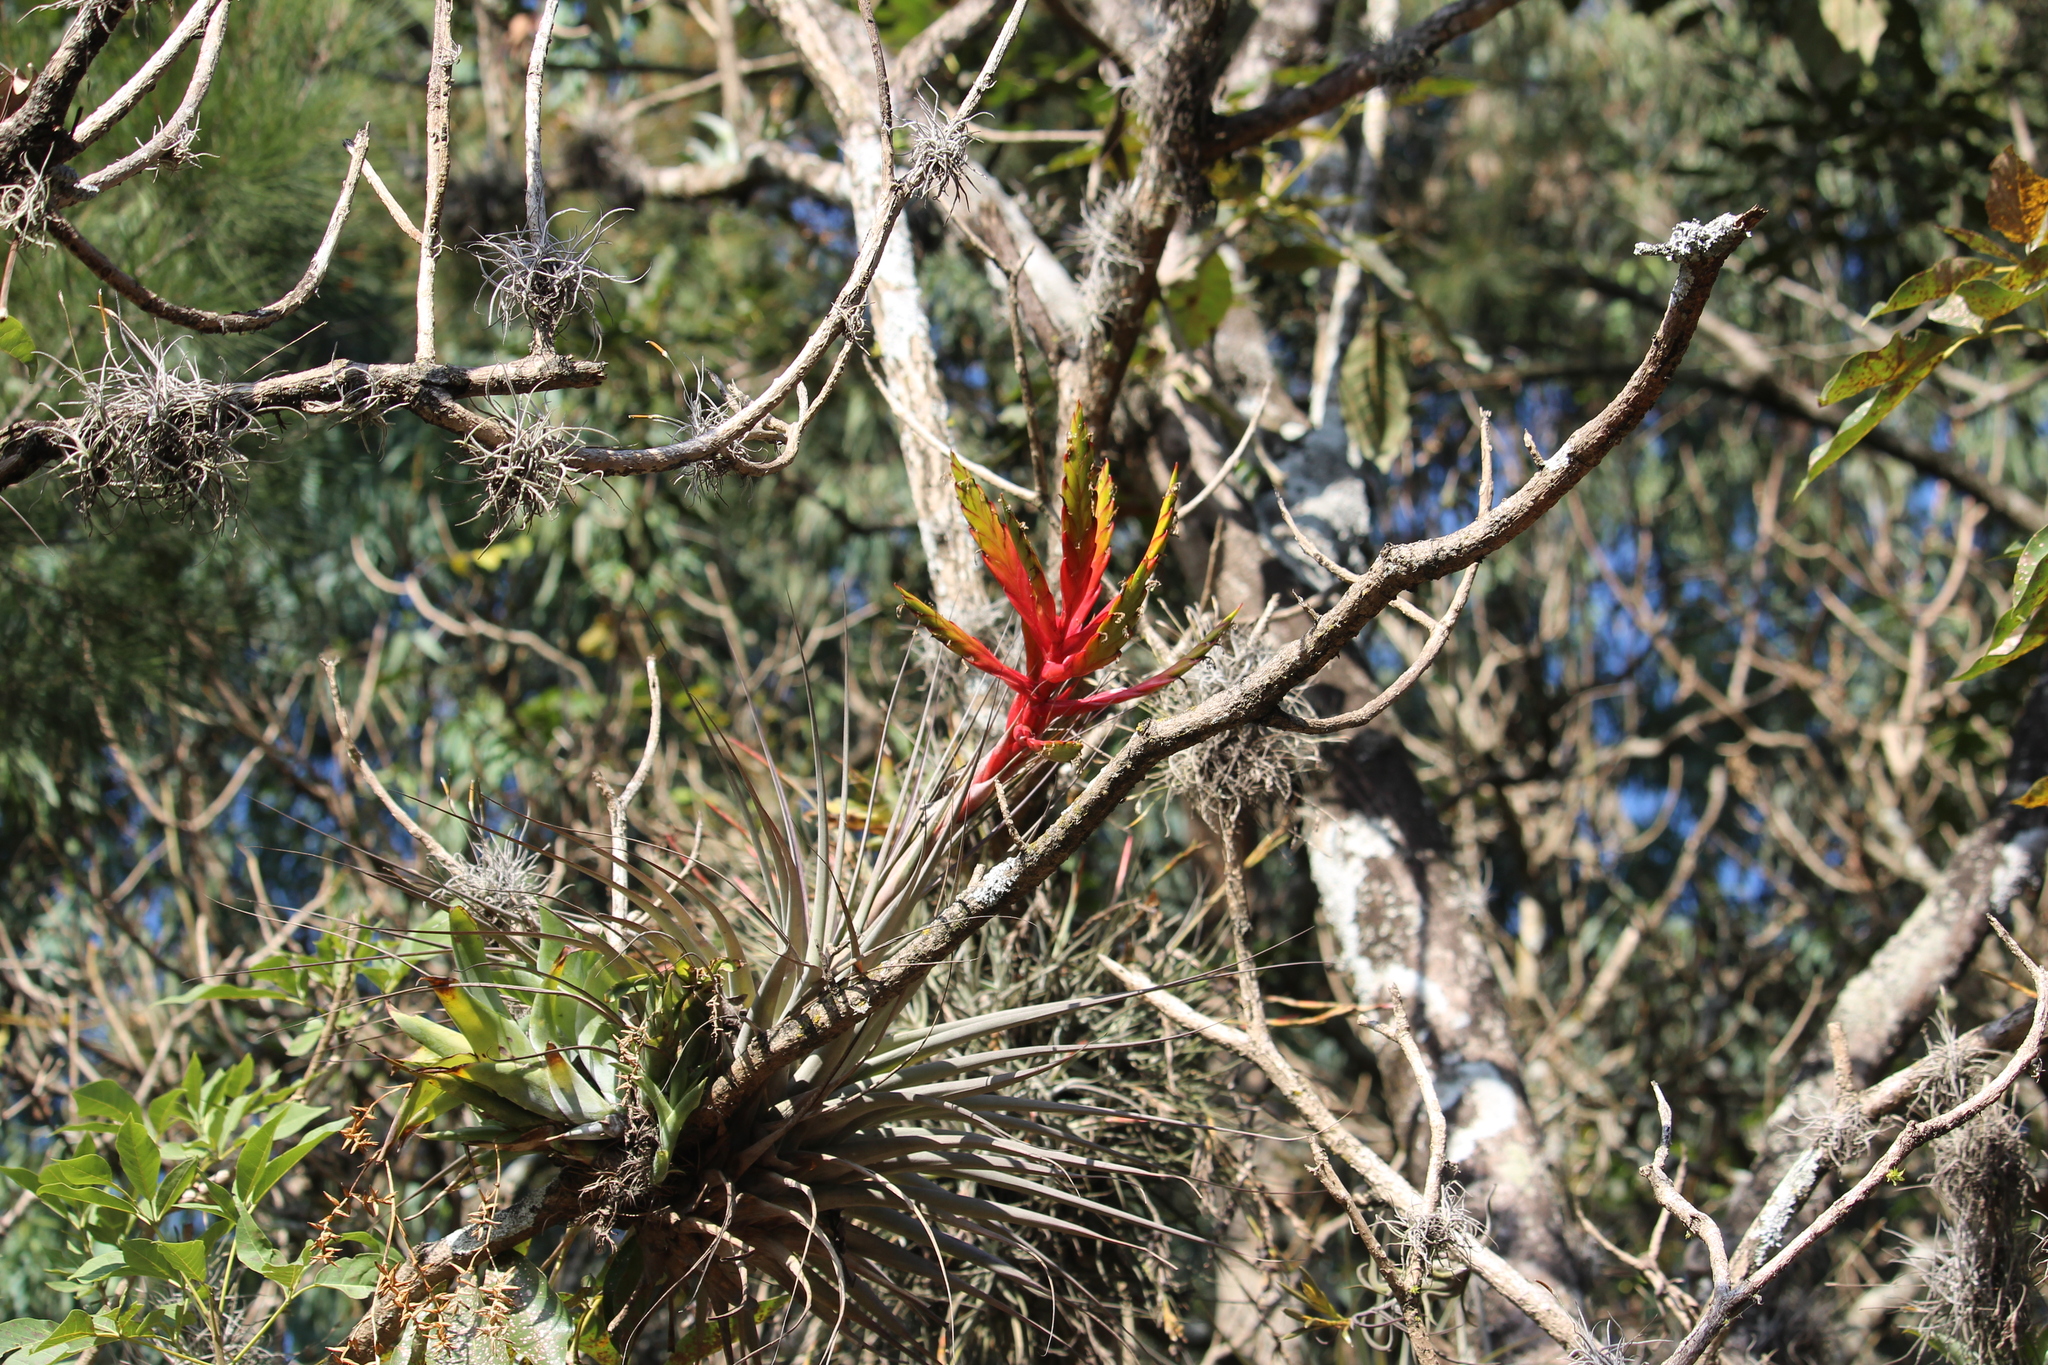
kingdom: Plantae
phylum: Tracheophyta
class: Liliopsida
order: Poales
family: Bromeliaceae
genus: Tillandsia
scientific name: Tillandsia fasciculata
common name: Giant airplant
